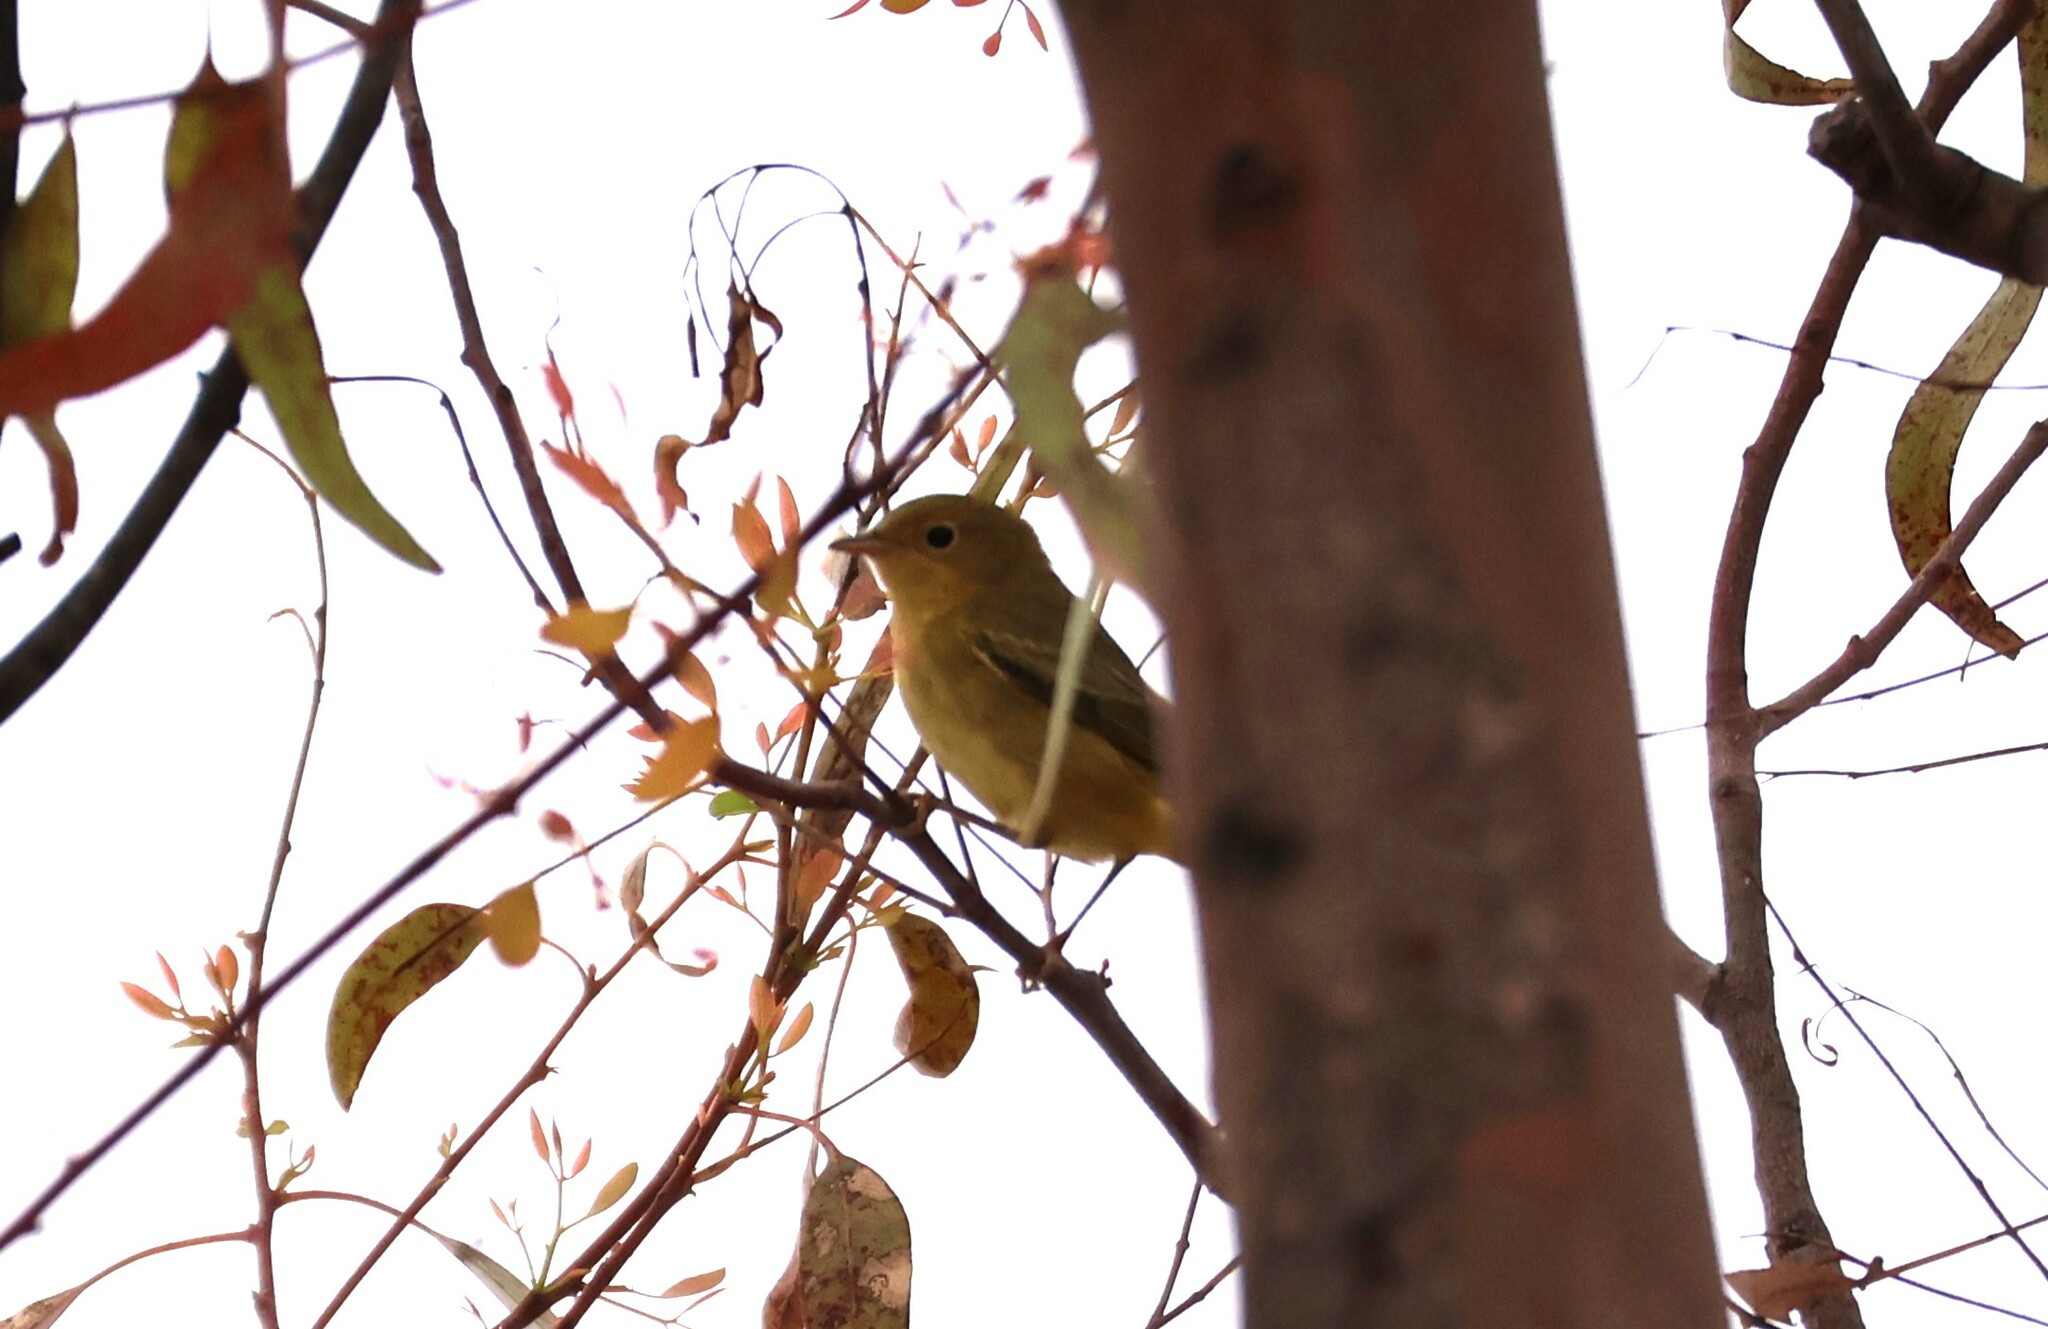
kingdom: Animalia
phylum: Chordata
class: Aves
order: Passeriformes
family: Parulidae
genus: Setophaga
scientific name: Setophaga petechia
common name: Yellow warbler
